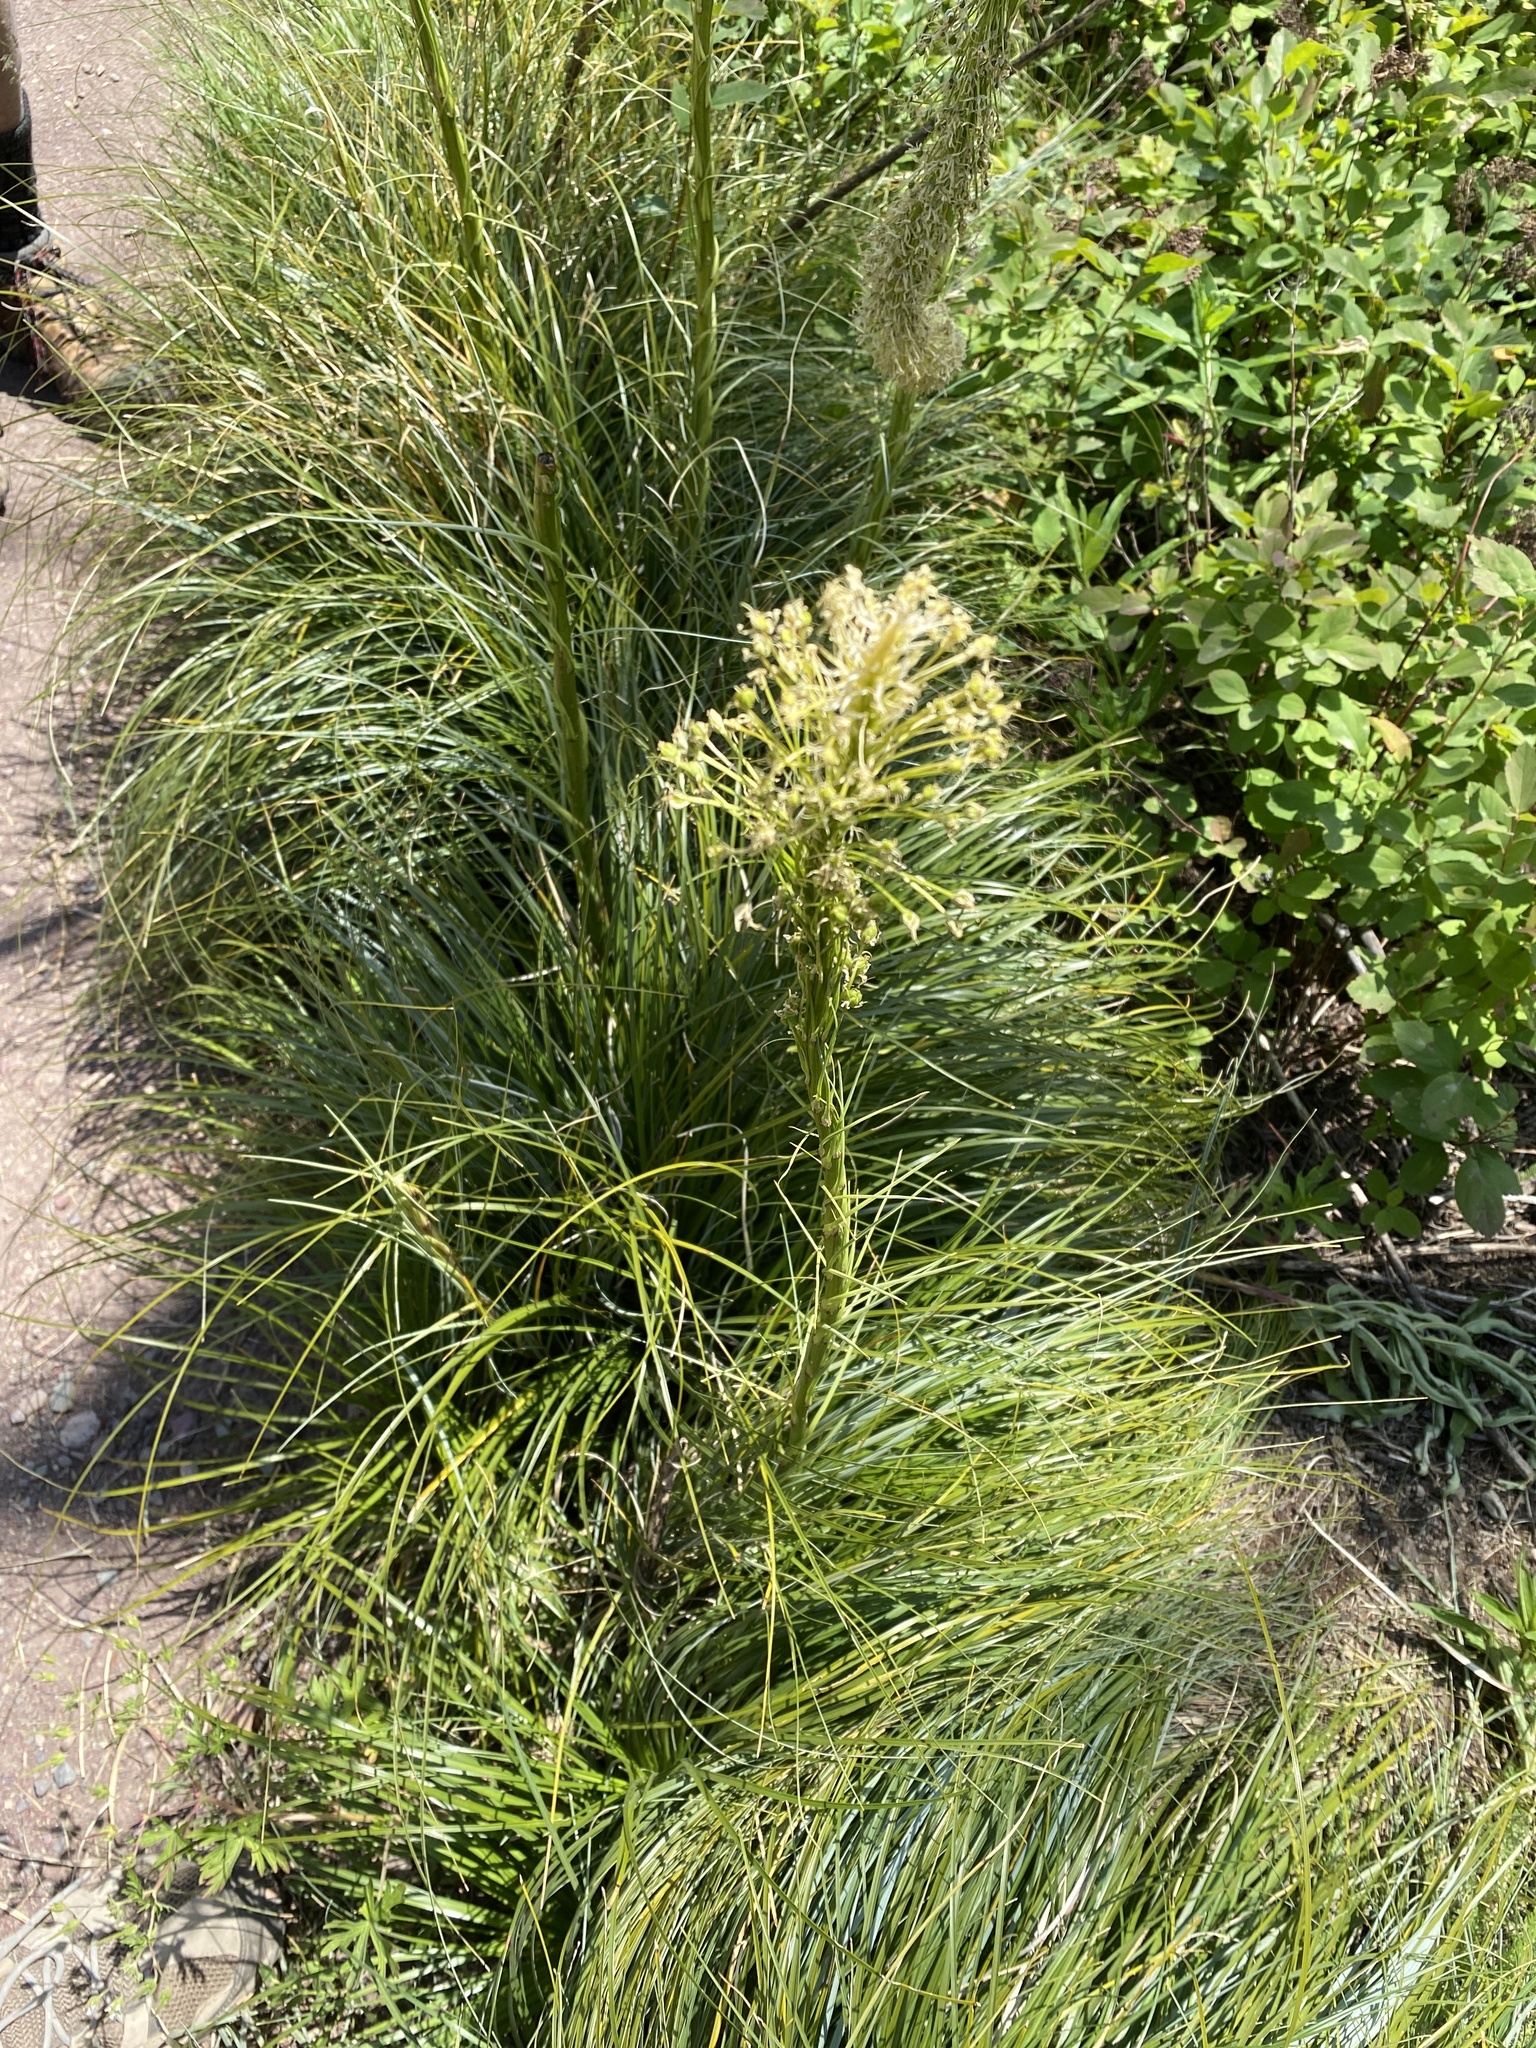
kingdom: Plantae
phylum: Tracheophyta
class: Liliopsida
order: Liliales
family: Melanthiaceae
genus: Xerophyllum
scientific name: Xerophyllum tenax
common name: Bear-grass
